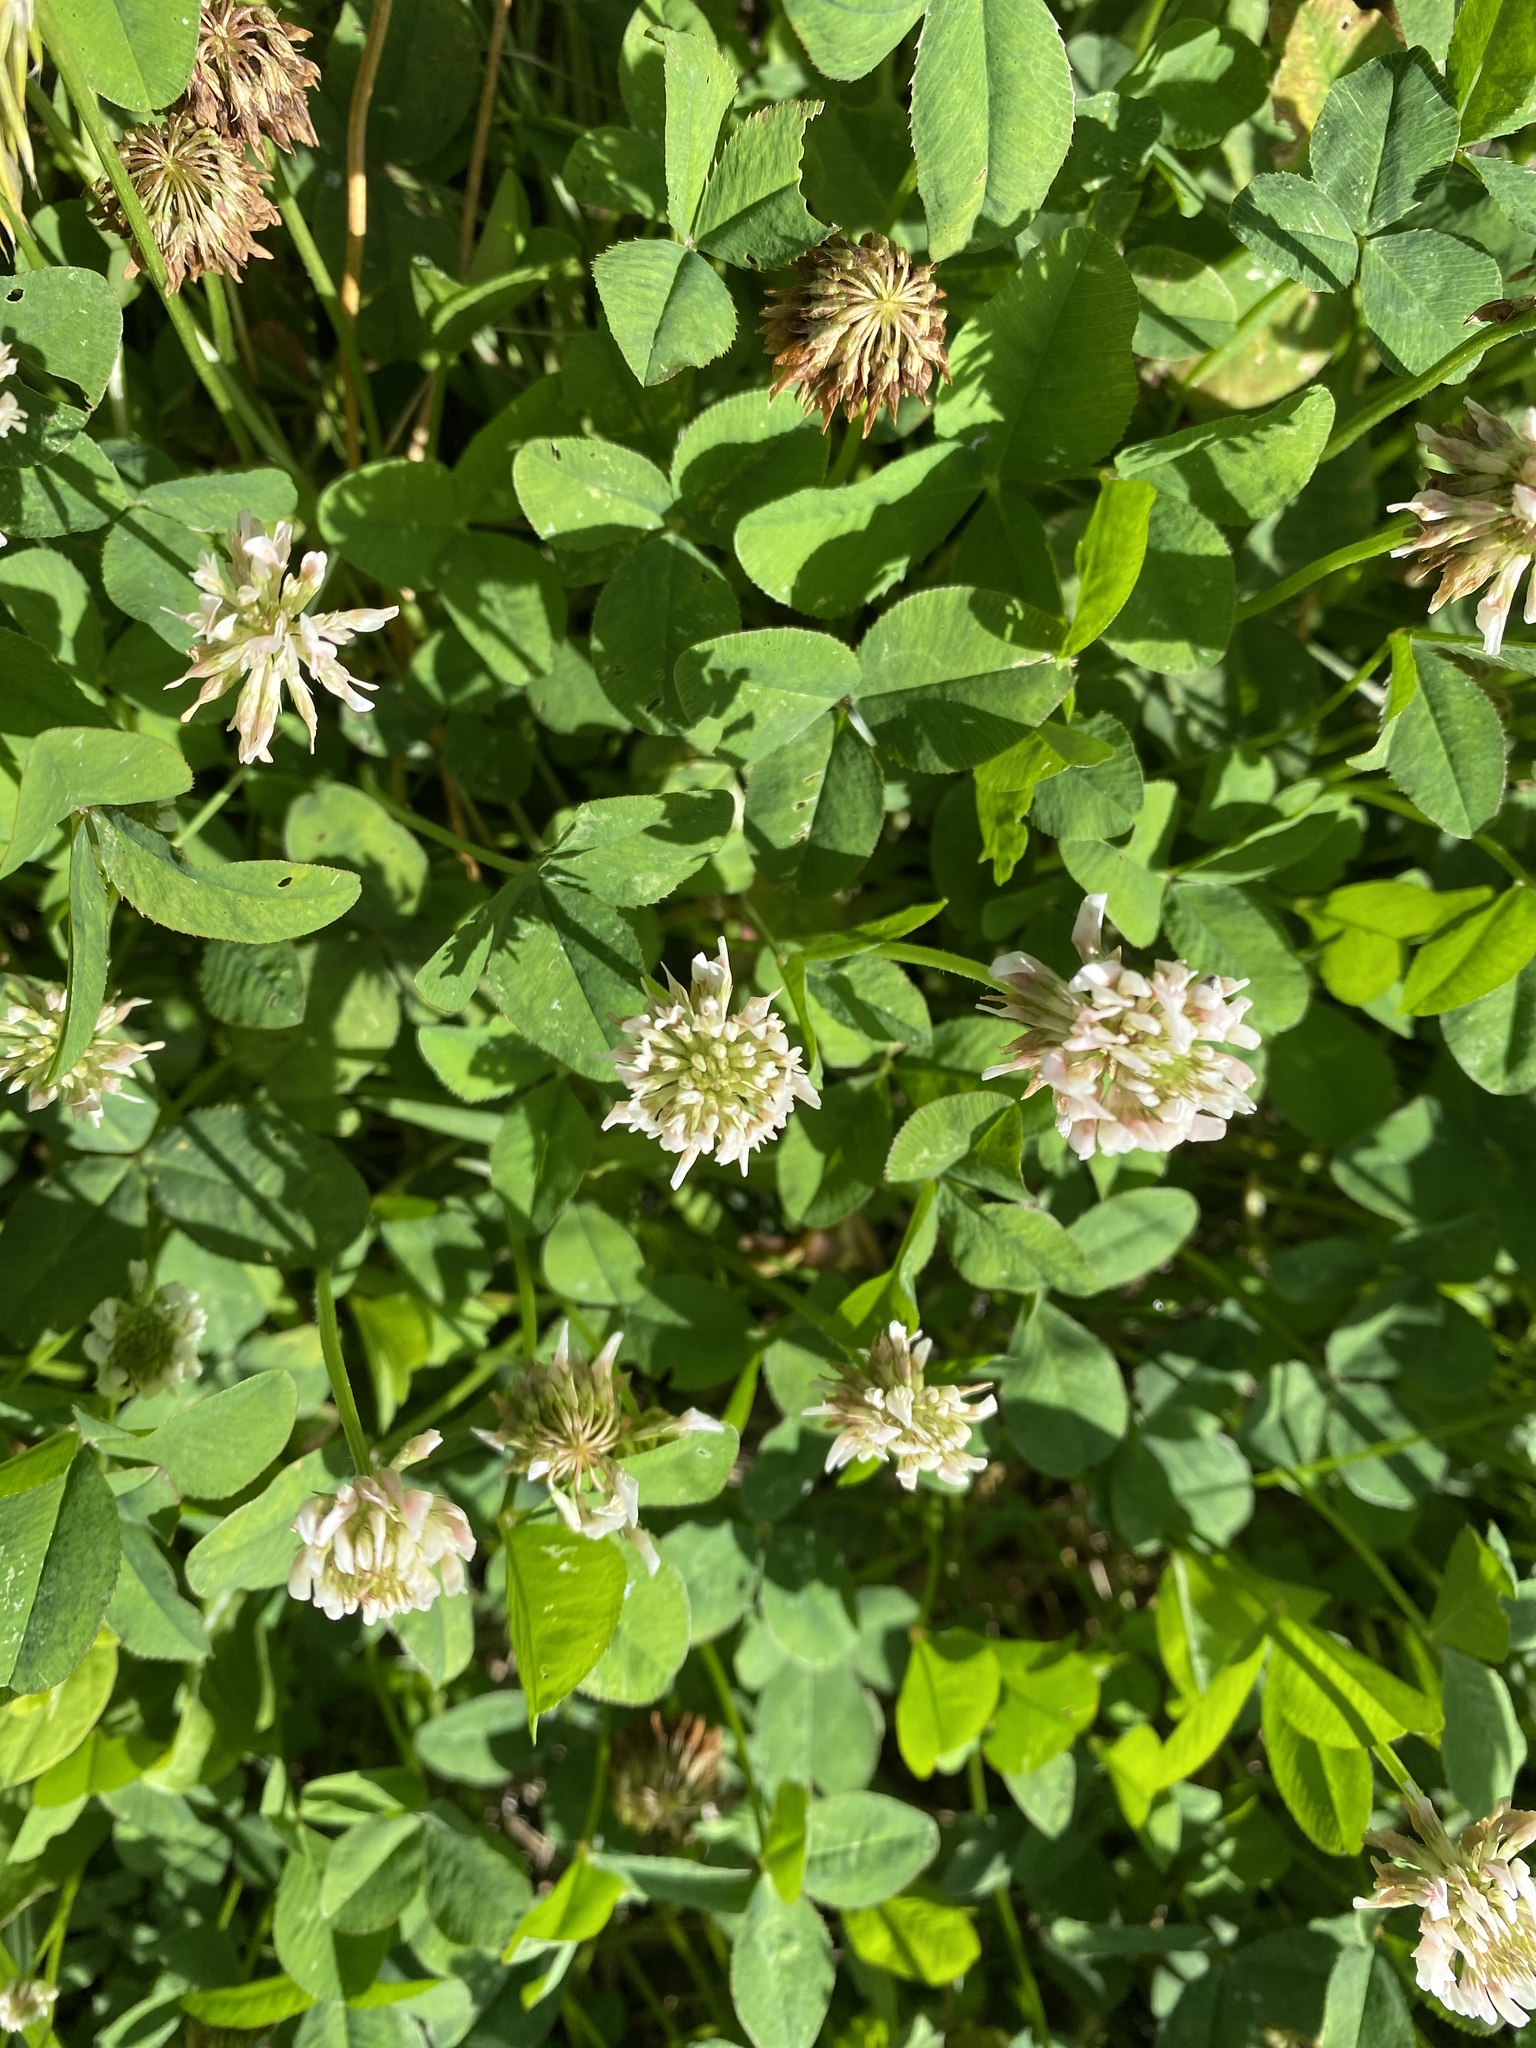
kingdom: Plantae
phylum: Tracheophyta
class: Magnoliopsida
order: Fabales
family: Fabaceae
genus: Trifolium
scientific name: Trifolium repens
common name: White clover
